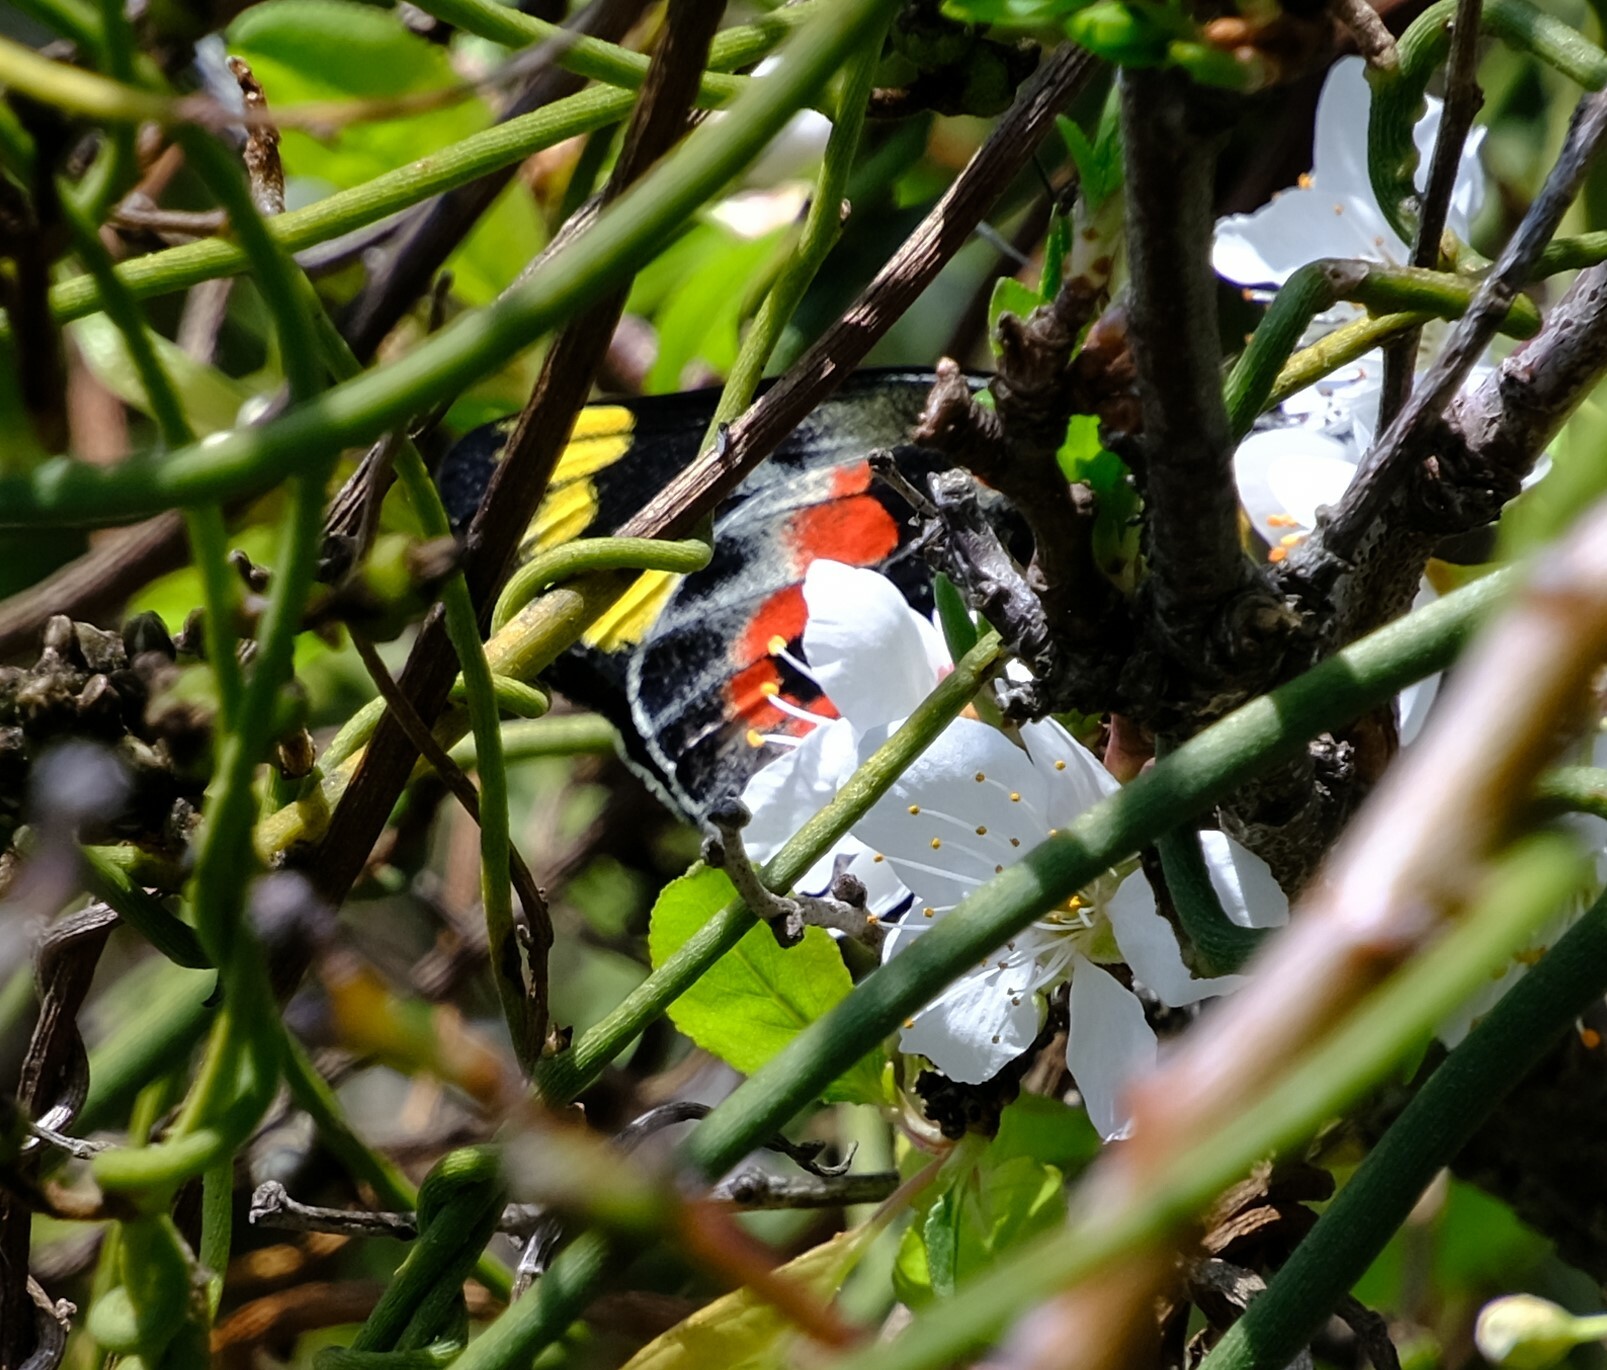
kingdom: Animalia
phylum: Arthropoda
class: Insecta
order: Lepidoptera
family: Pieridae
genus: Delias
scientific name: Delias harpalyce
